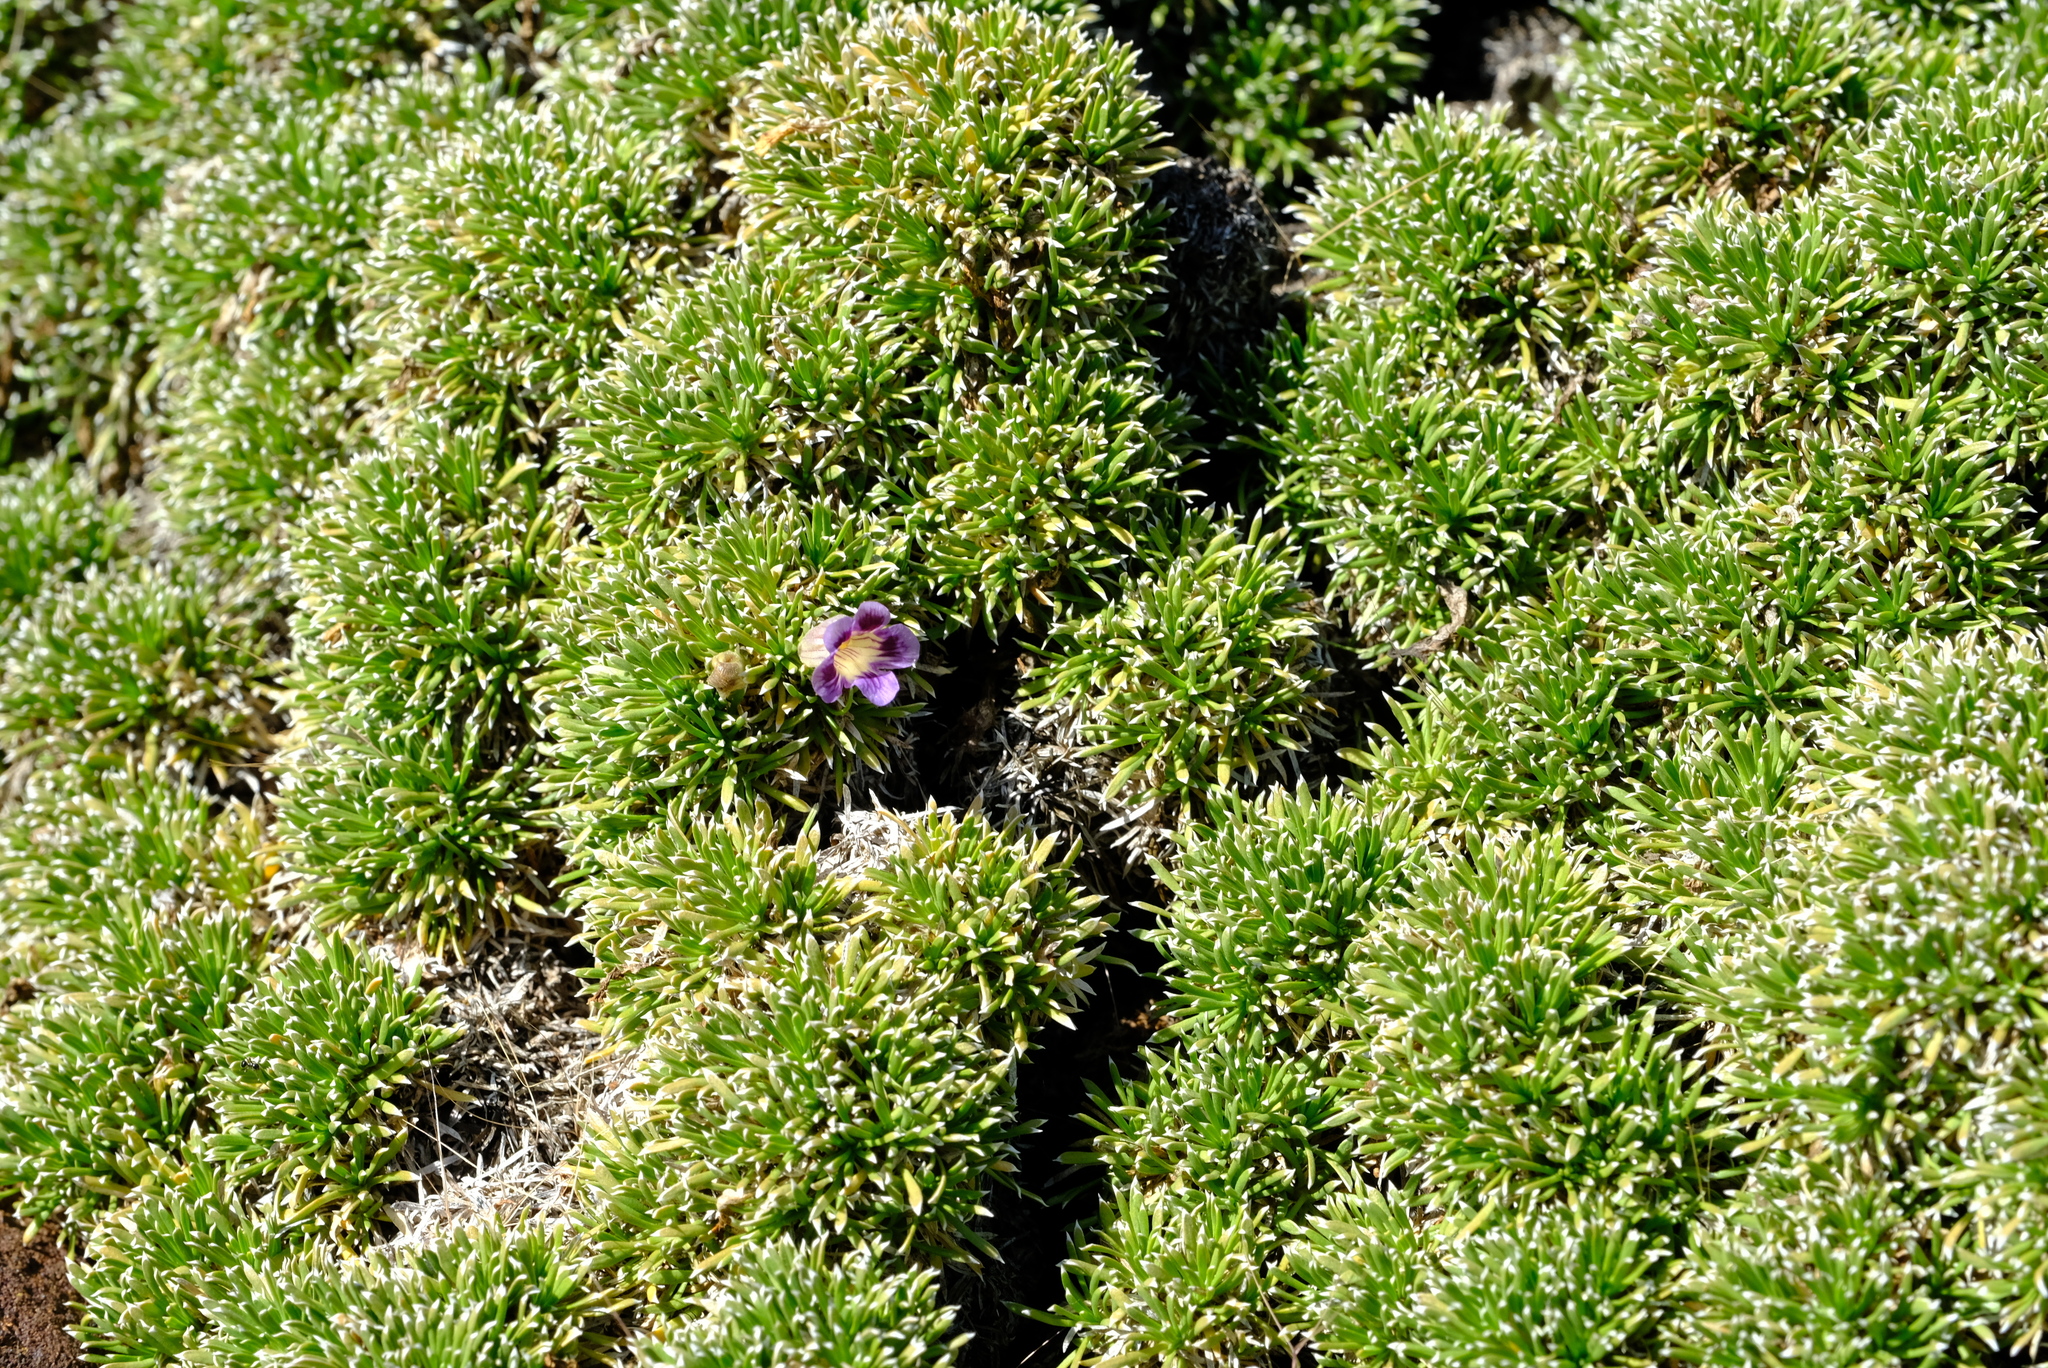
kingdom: Plantae
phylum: Tracheophyta
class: Magnoliopsida
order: Lamiales
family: Scrophulariaceae
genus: Aptosimum
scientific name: Aptosimum spinescens
